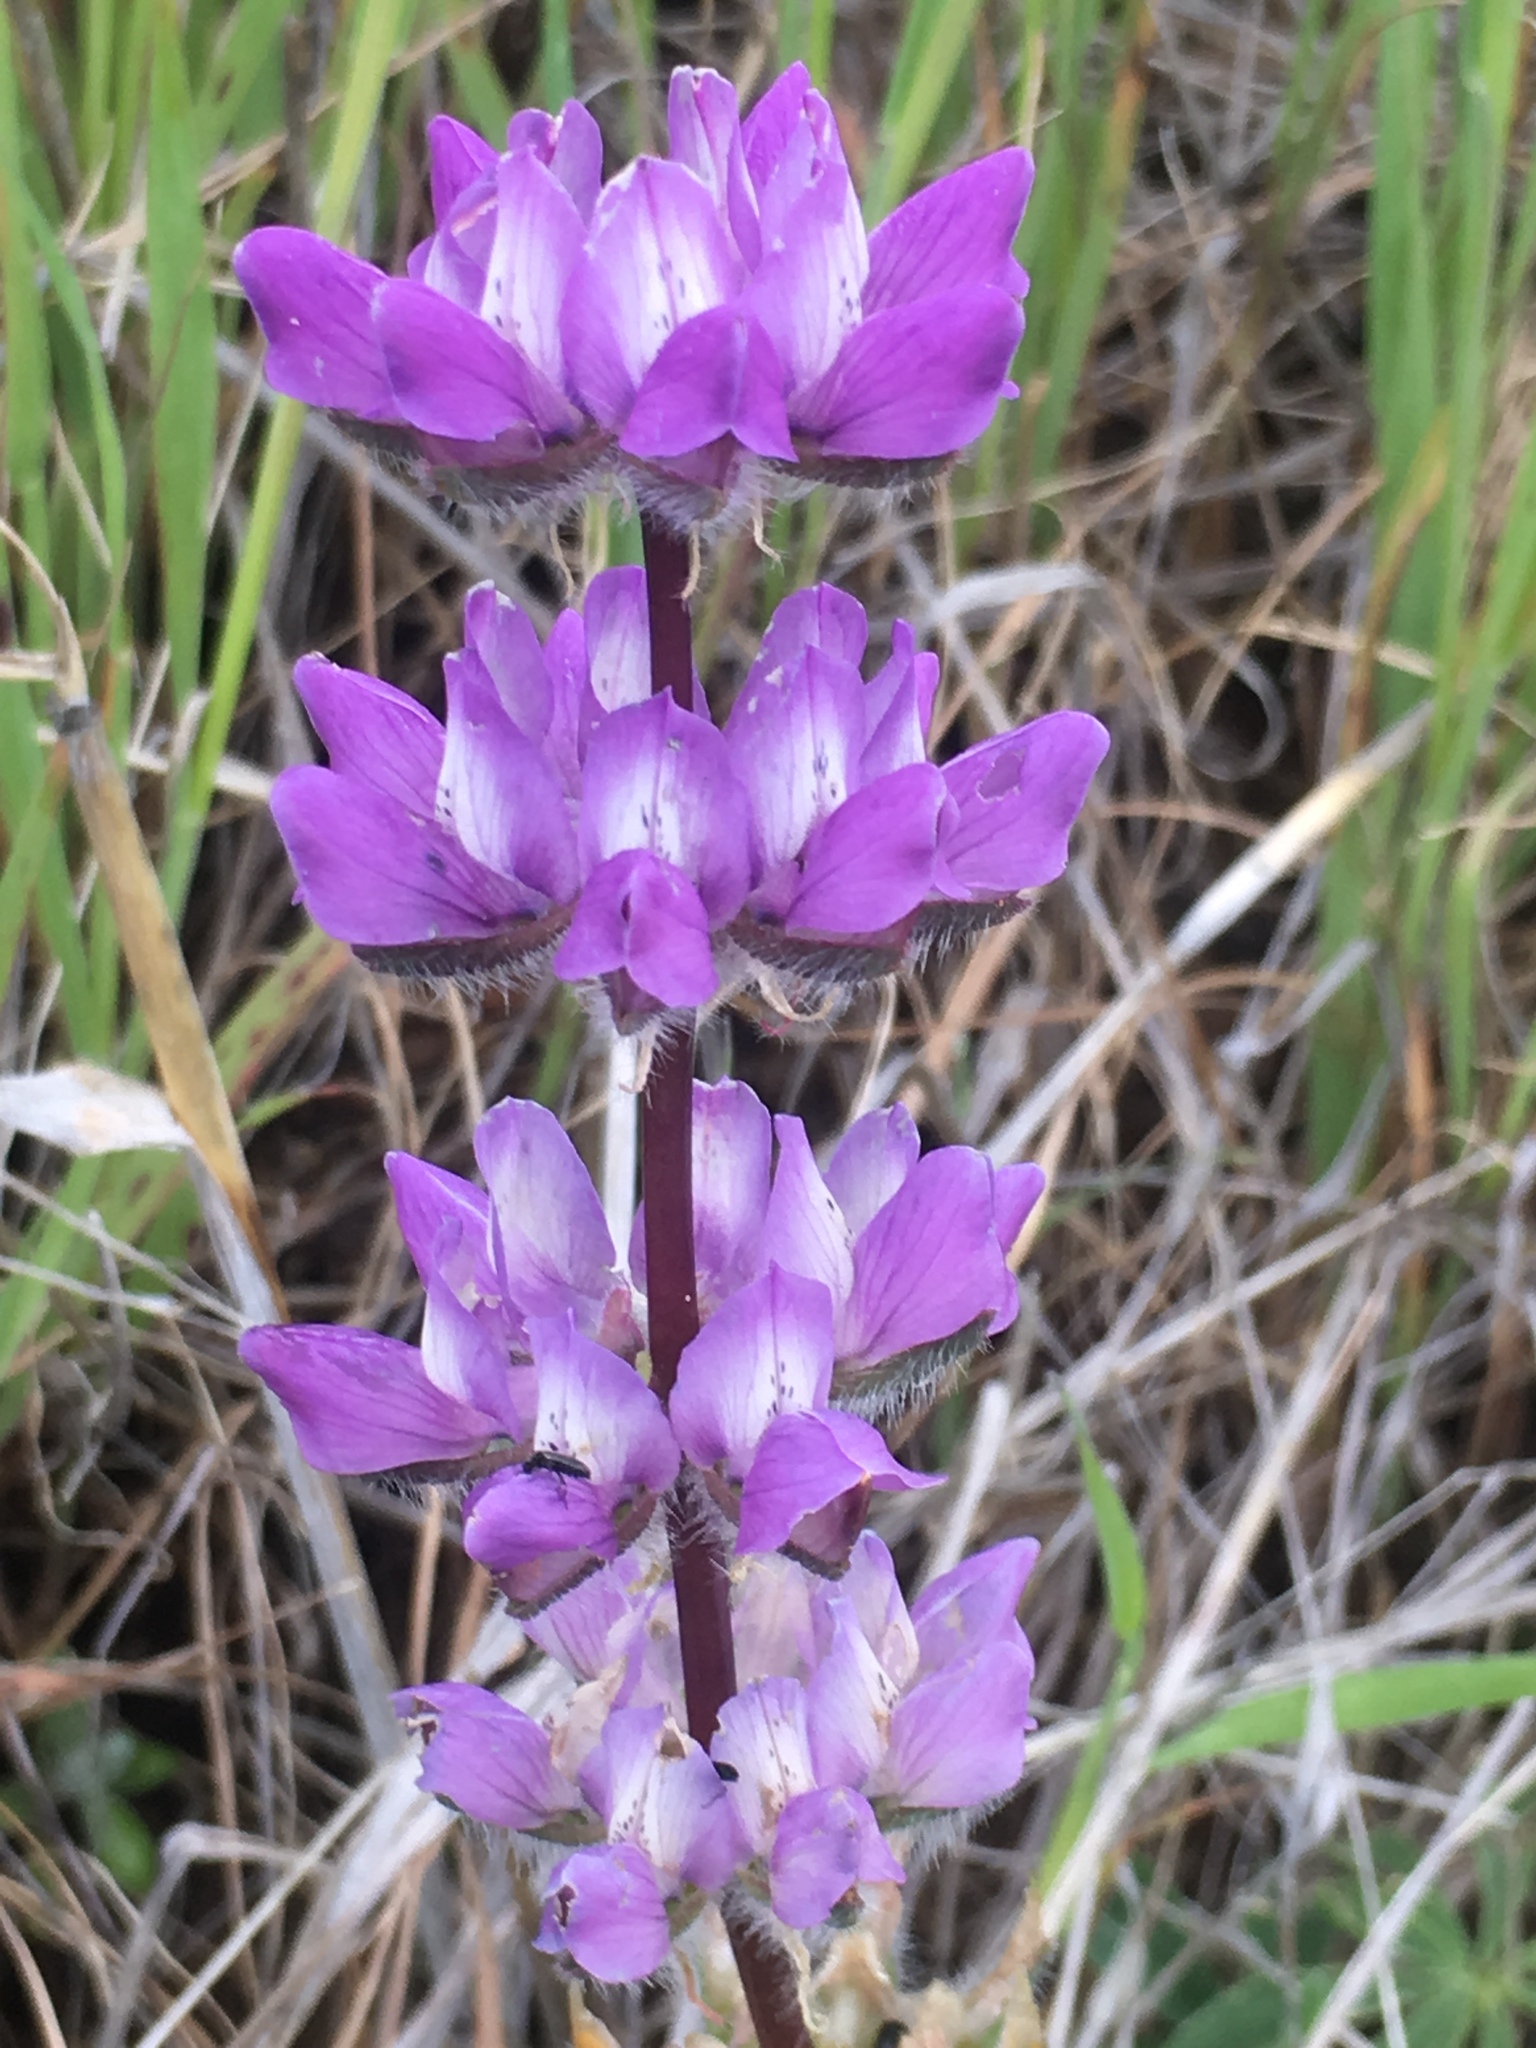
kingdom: Plantae
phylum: Tracheophyta
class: Magnoliopsida
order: Fabales
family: Fabaceae
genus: Lupinus
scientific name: Lupinus microcarpus
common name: Chick lupine
